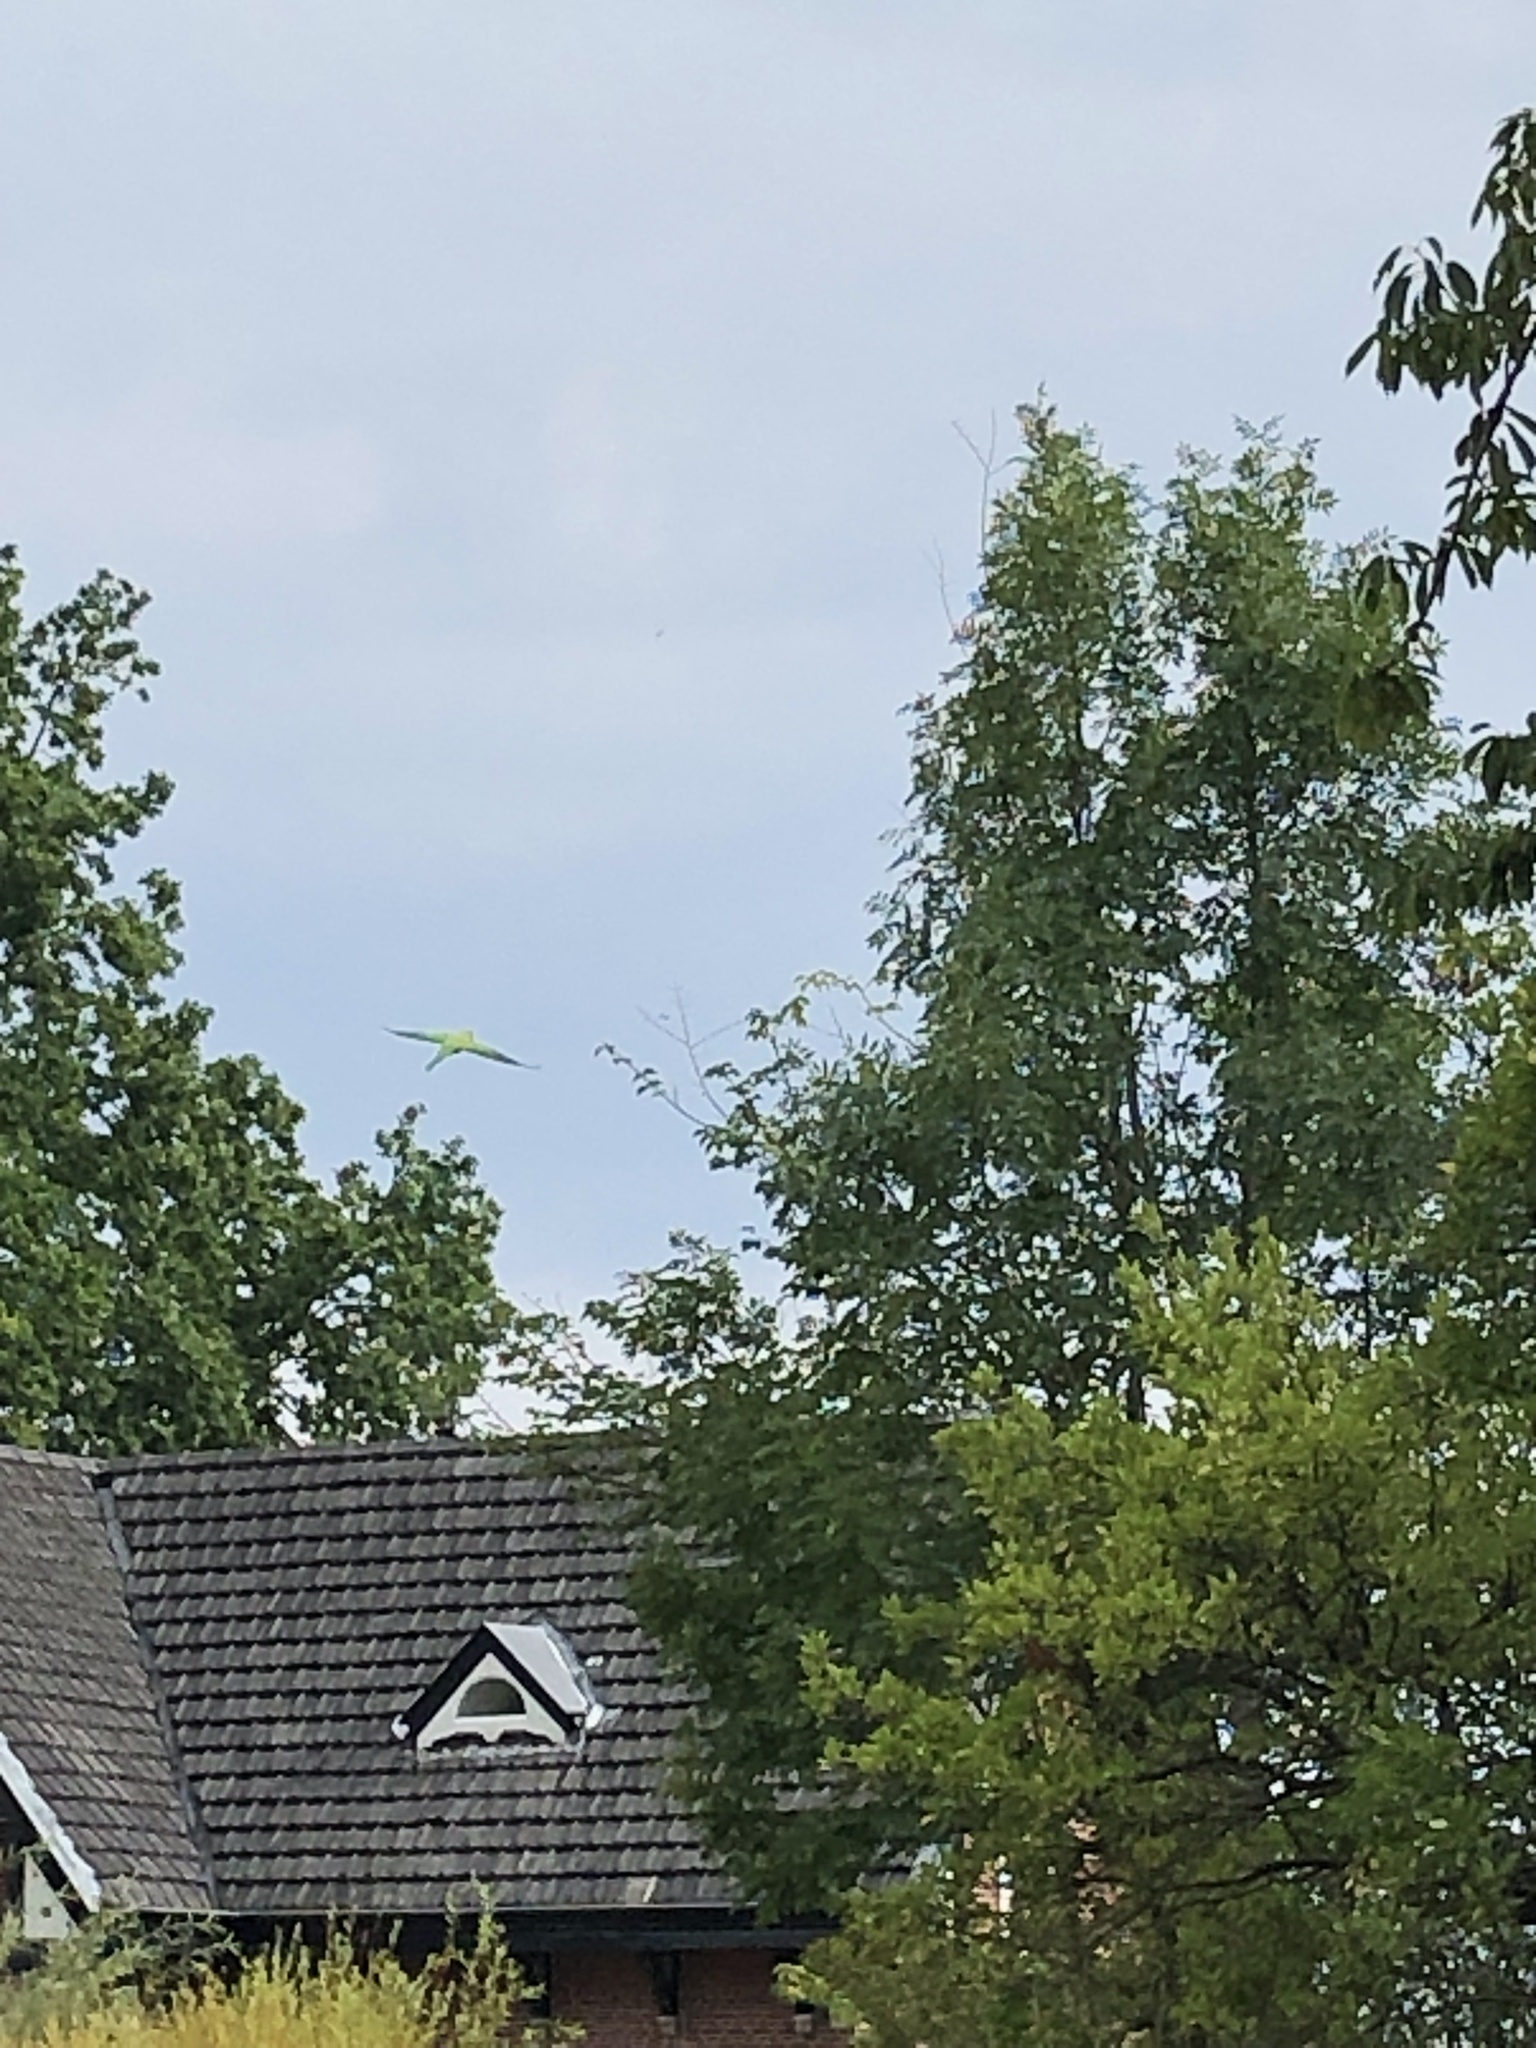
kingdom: Animalia
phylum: Chordata
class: Aves
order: Psittaciformes
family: Psittacidae
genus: Psittacula
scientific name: Psittacula krameri
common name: Rose-ringed parakeet
